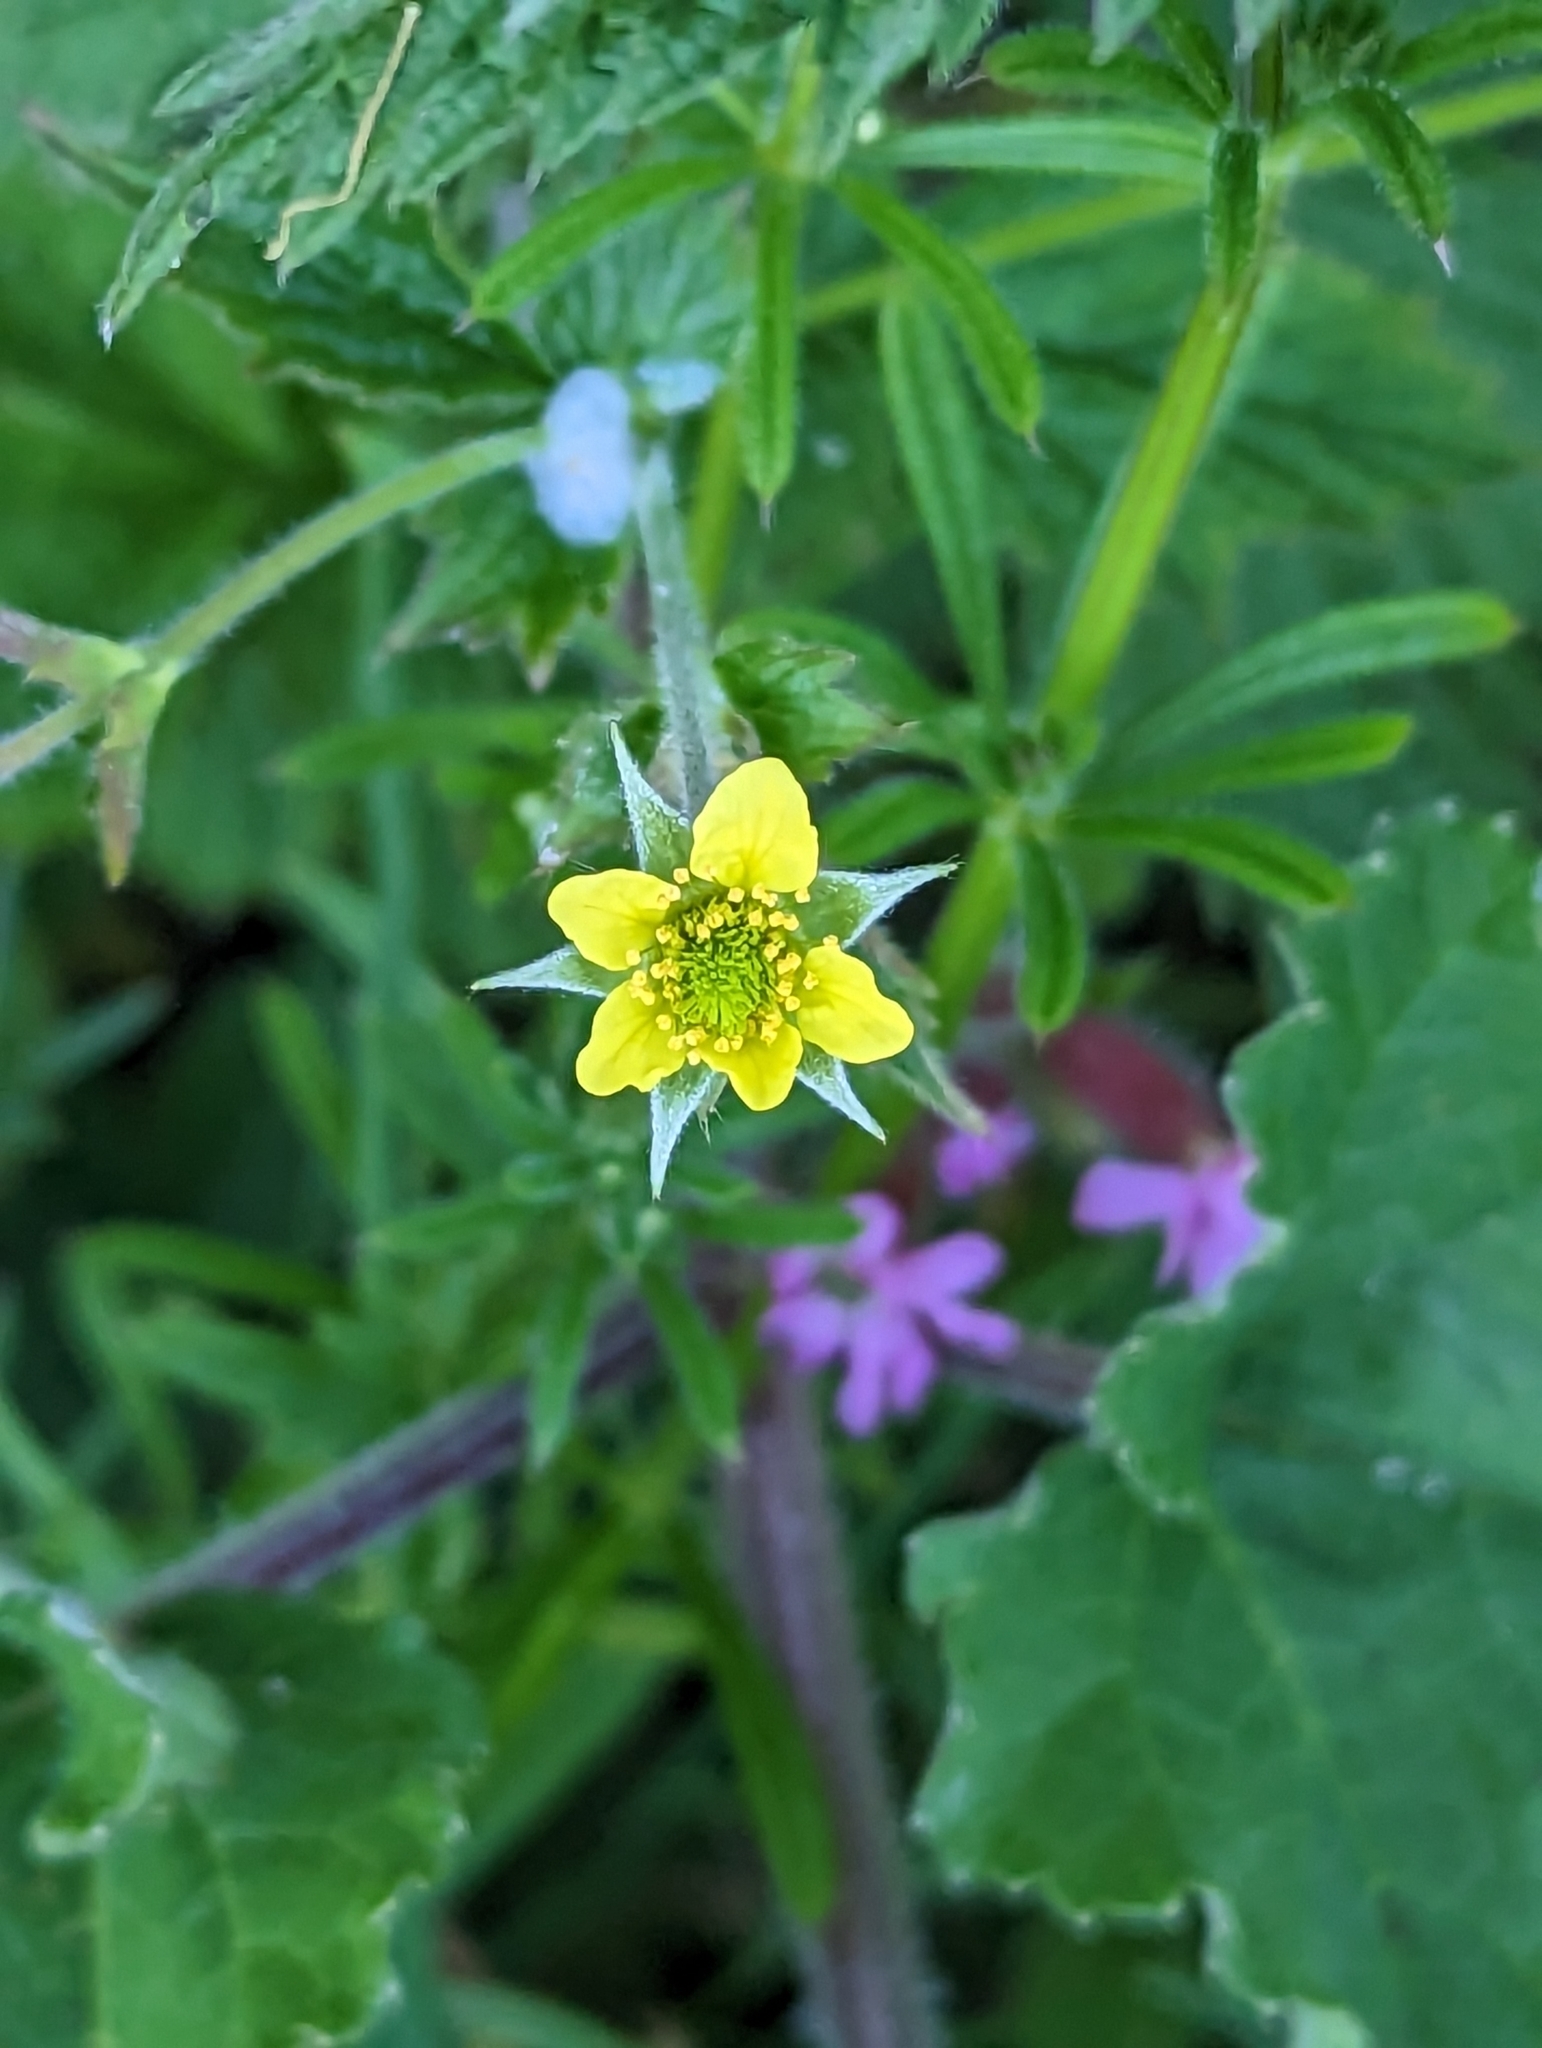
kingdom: Plantae
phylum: Tracheophyta
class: Magnoliopsida
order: Rosales
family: Rosaceae
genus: Geum
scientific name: Geum urbanum
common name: Wood avens
